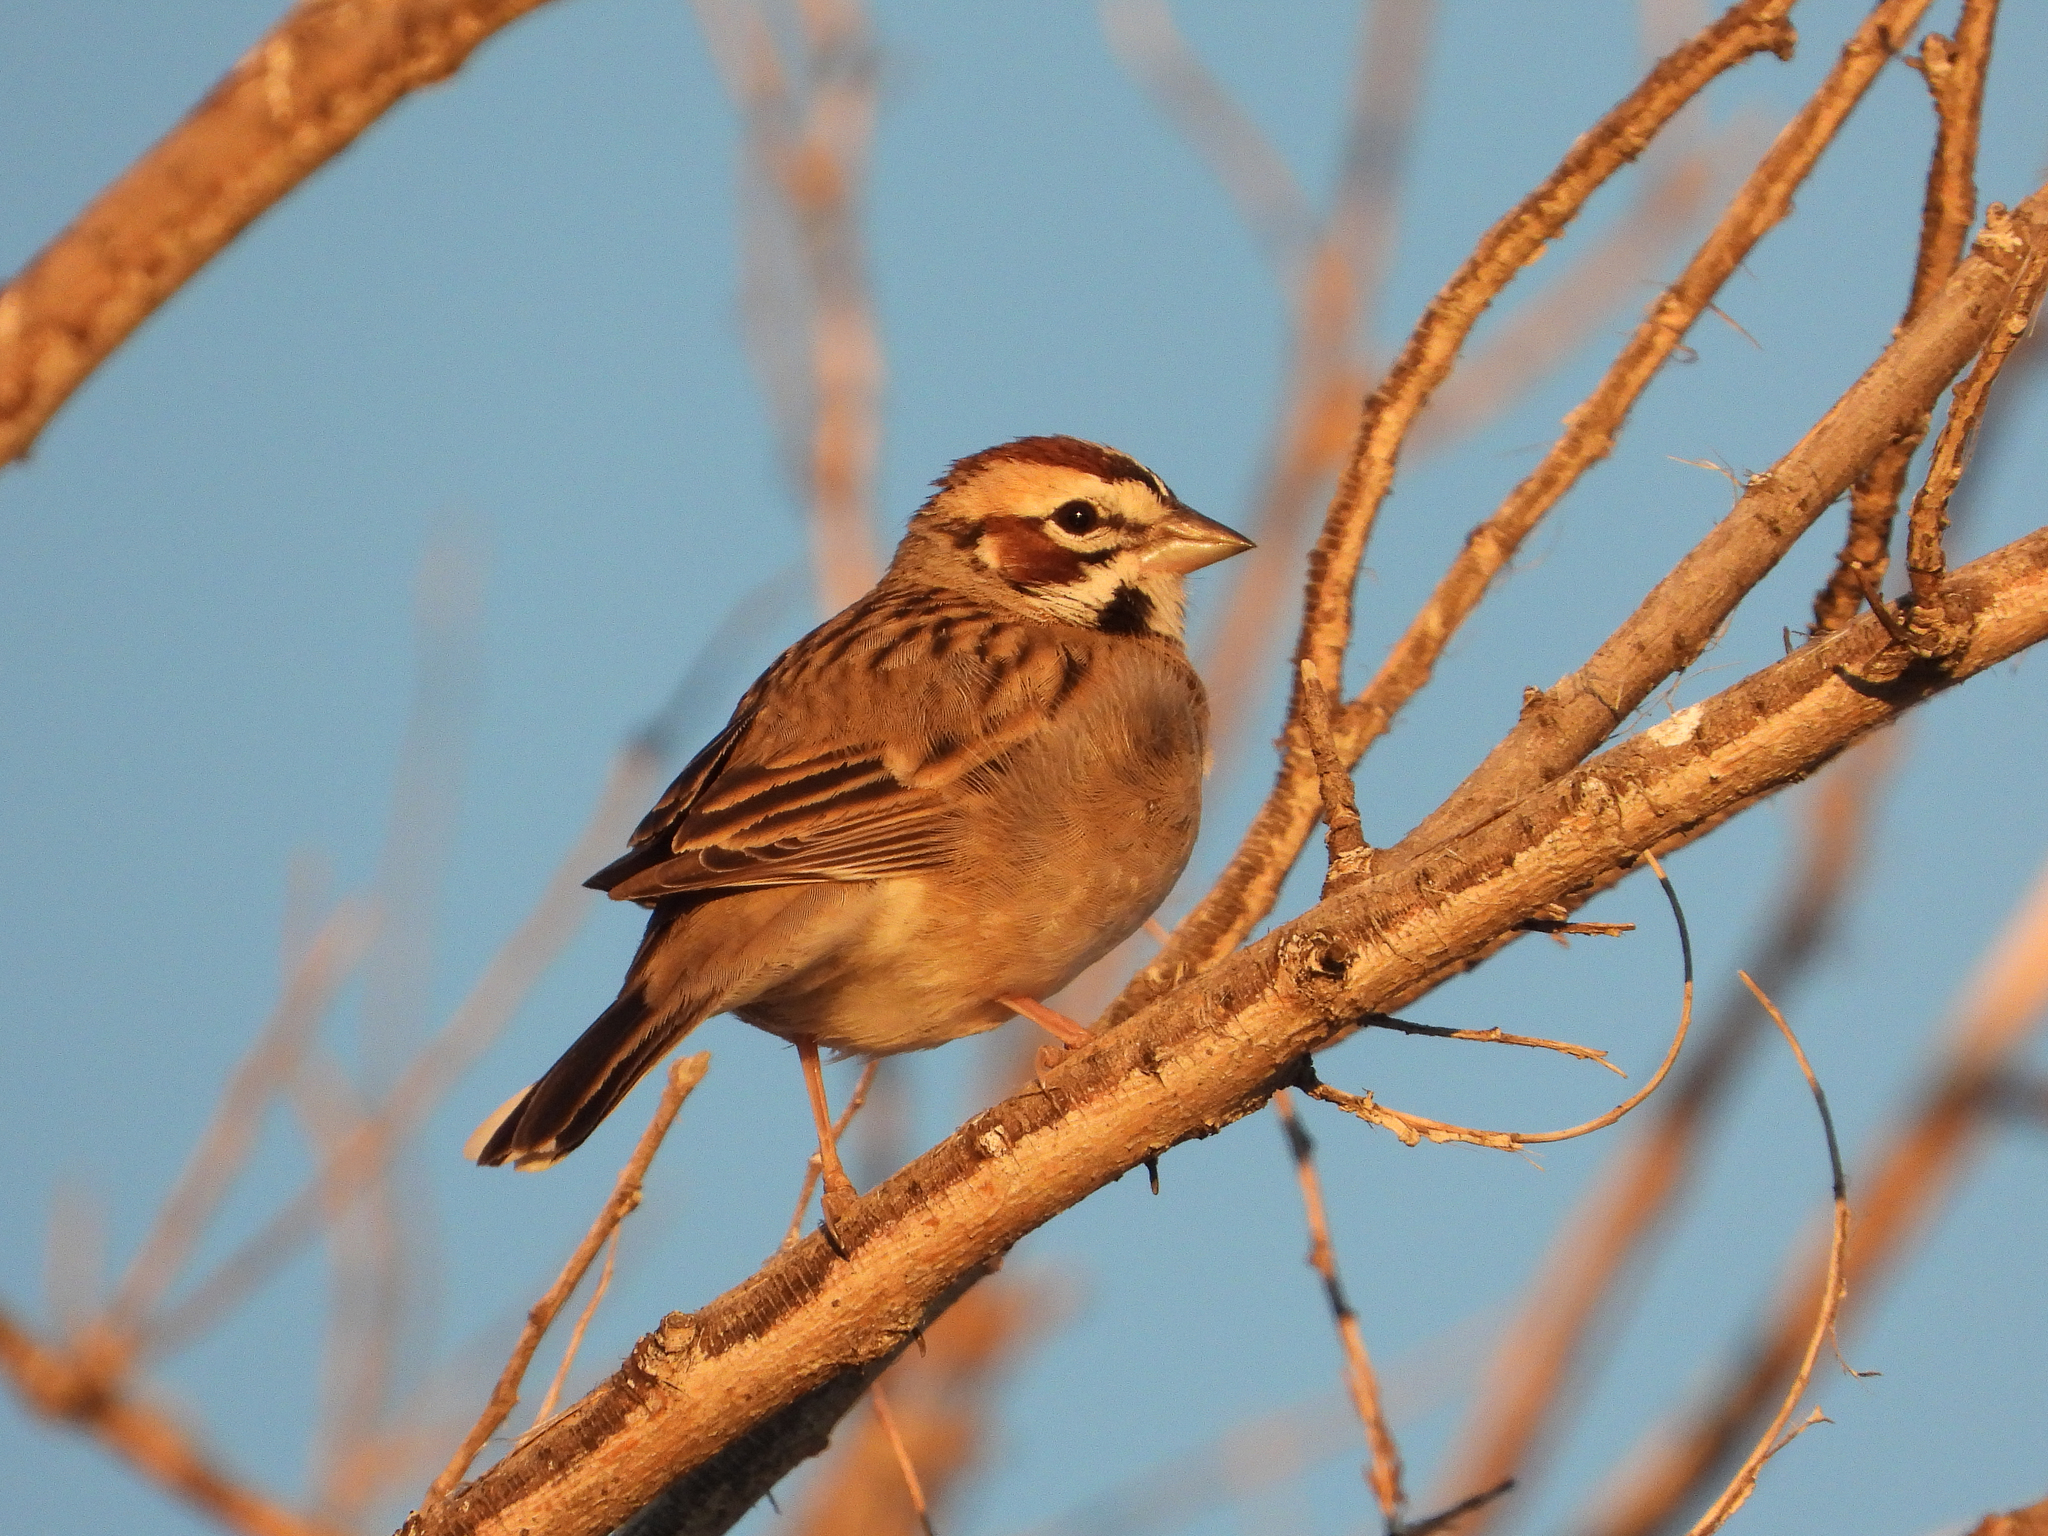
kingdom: Animalia
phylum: Chordata
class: Aves
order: Passeriformes
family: Passerellidae
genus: Chondestes
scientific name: Chondestes grammacus
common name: Lark sparrow
